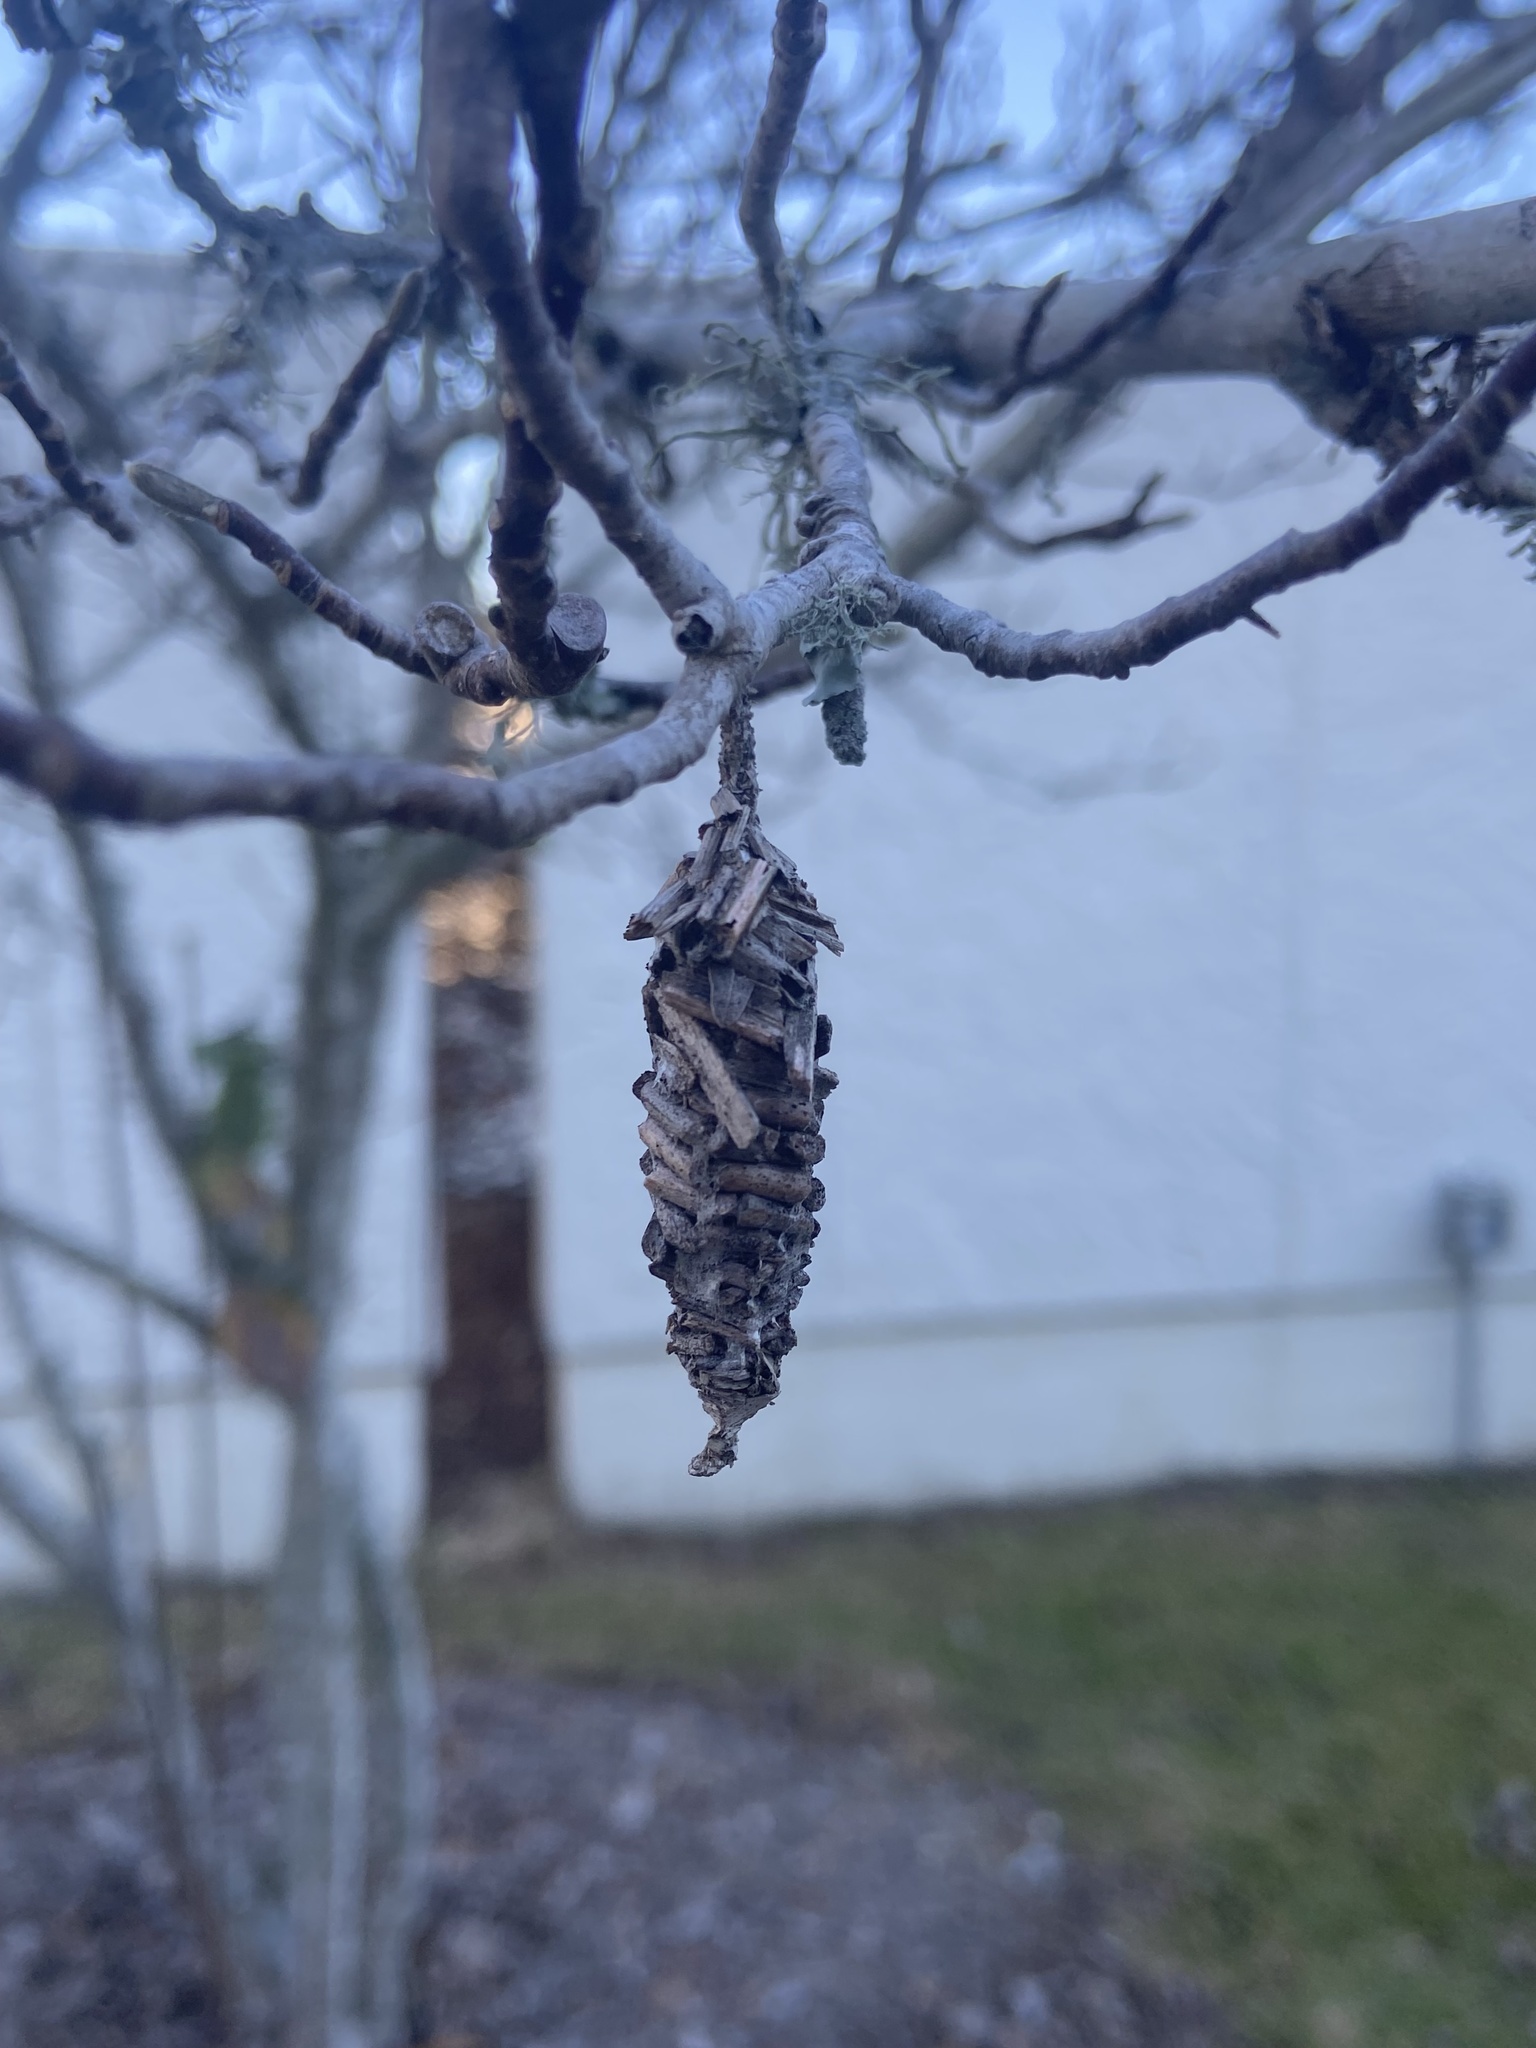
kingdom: Animalia
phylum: Arthropoda
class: Insecta
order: Lepidoptera
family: Psychidae
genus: Oiketicus
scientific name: Oiketicus
